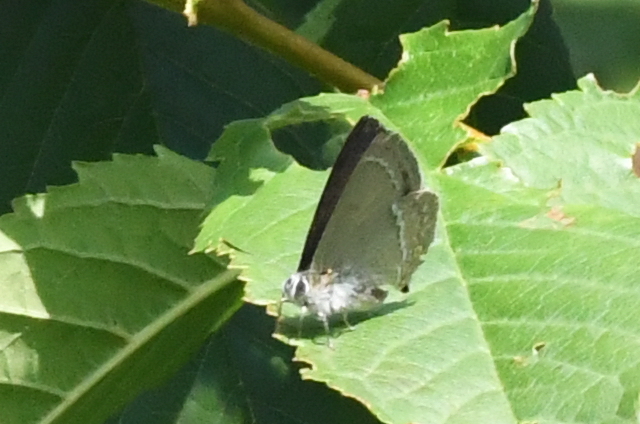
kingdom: Animalia
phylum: Arthropoda
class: Insecta
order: Lepidoptera
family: Lycaenidae
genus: Quercusia
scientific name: Quercusia quercus
